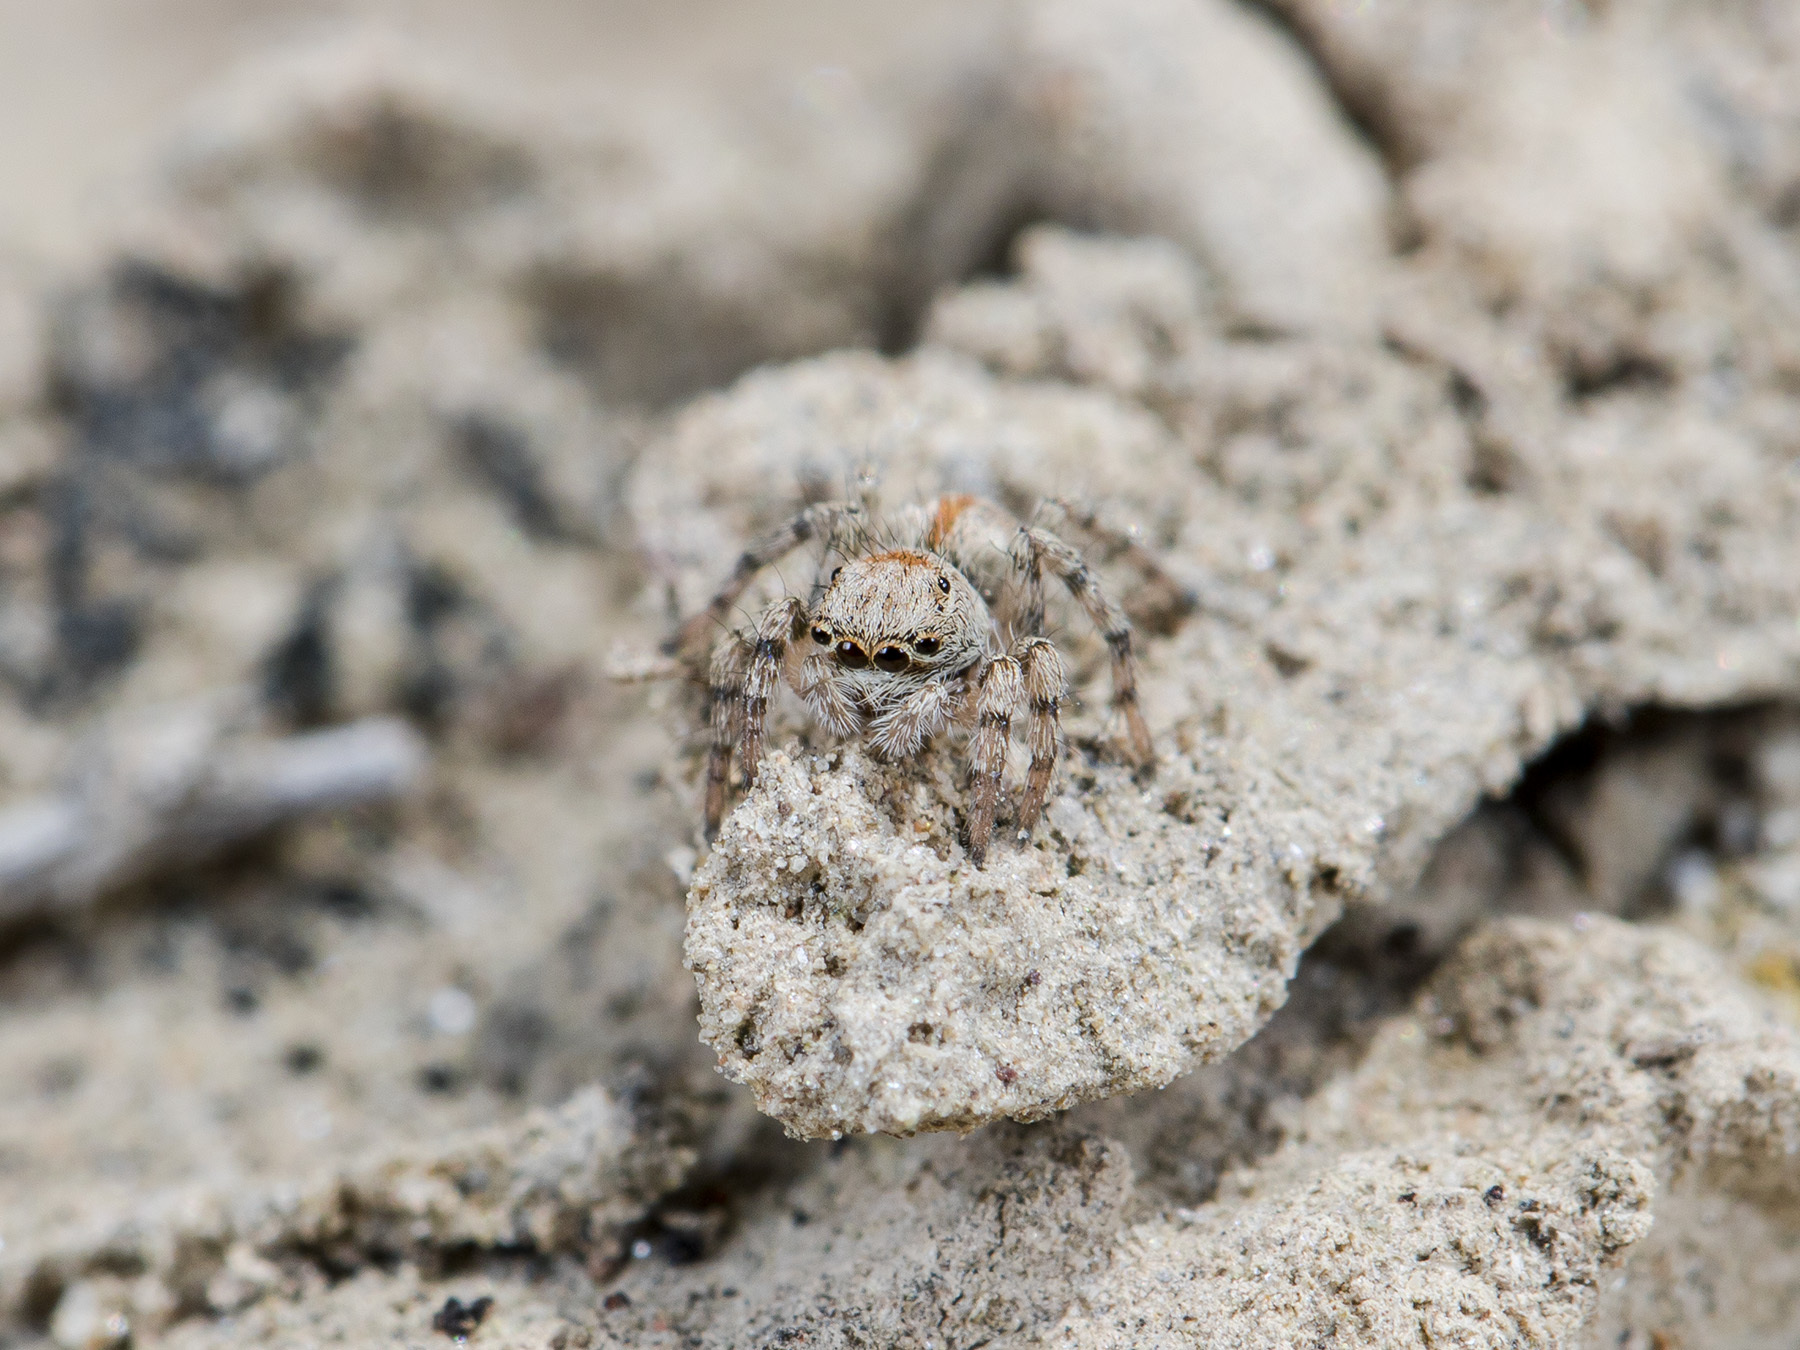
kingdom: Animalia
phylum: Arthropoda
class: Arachnida
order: Araneae
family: Salticidae
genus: Aelurillus
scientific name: Aelurillus dubatolovi
